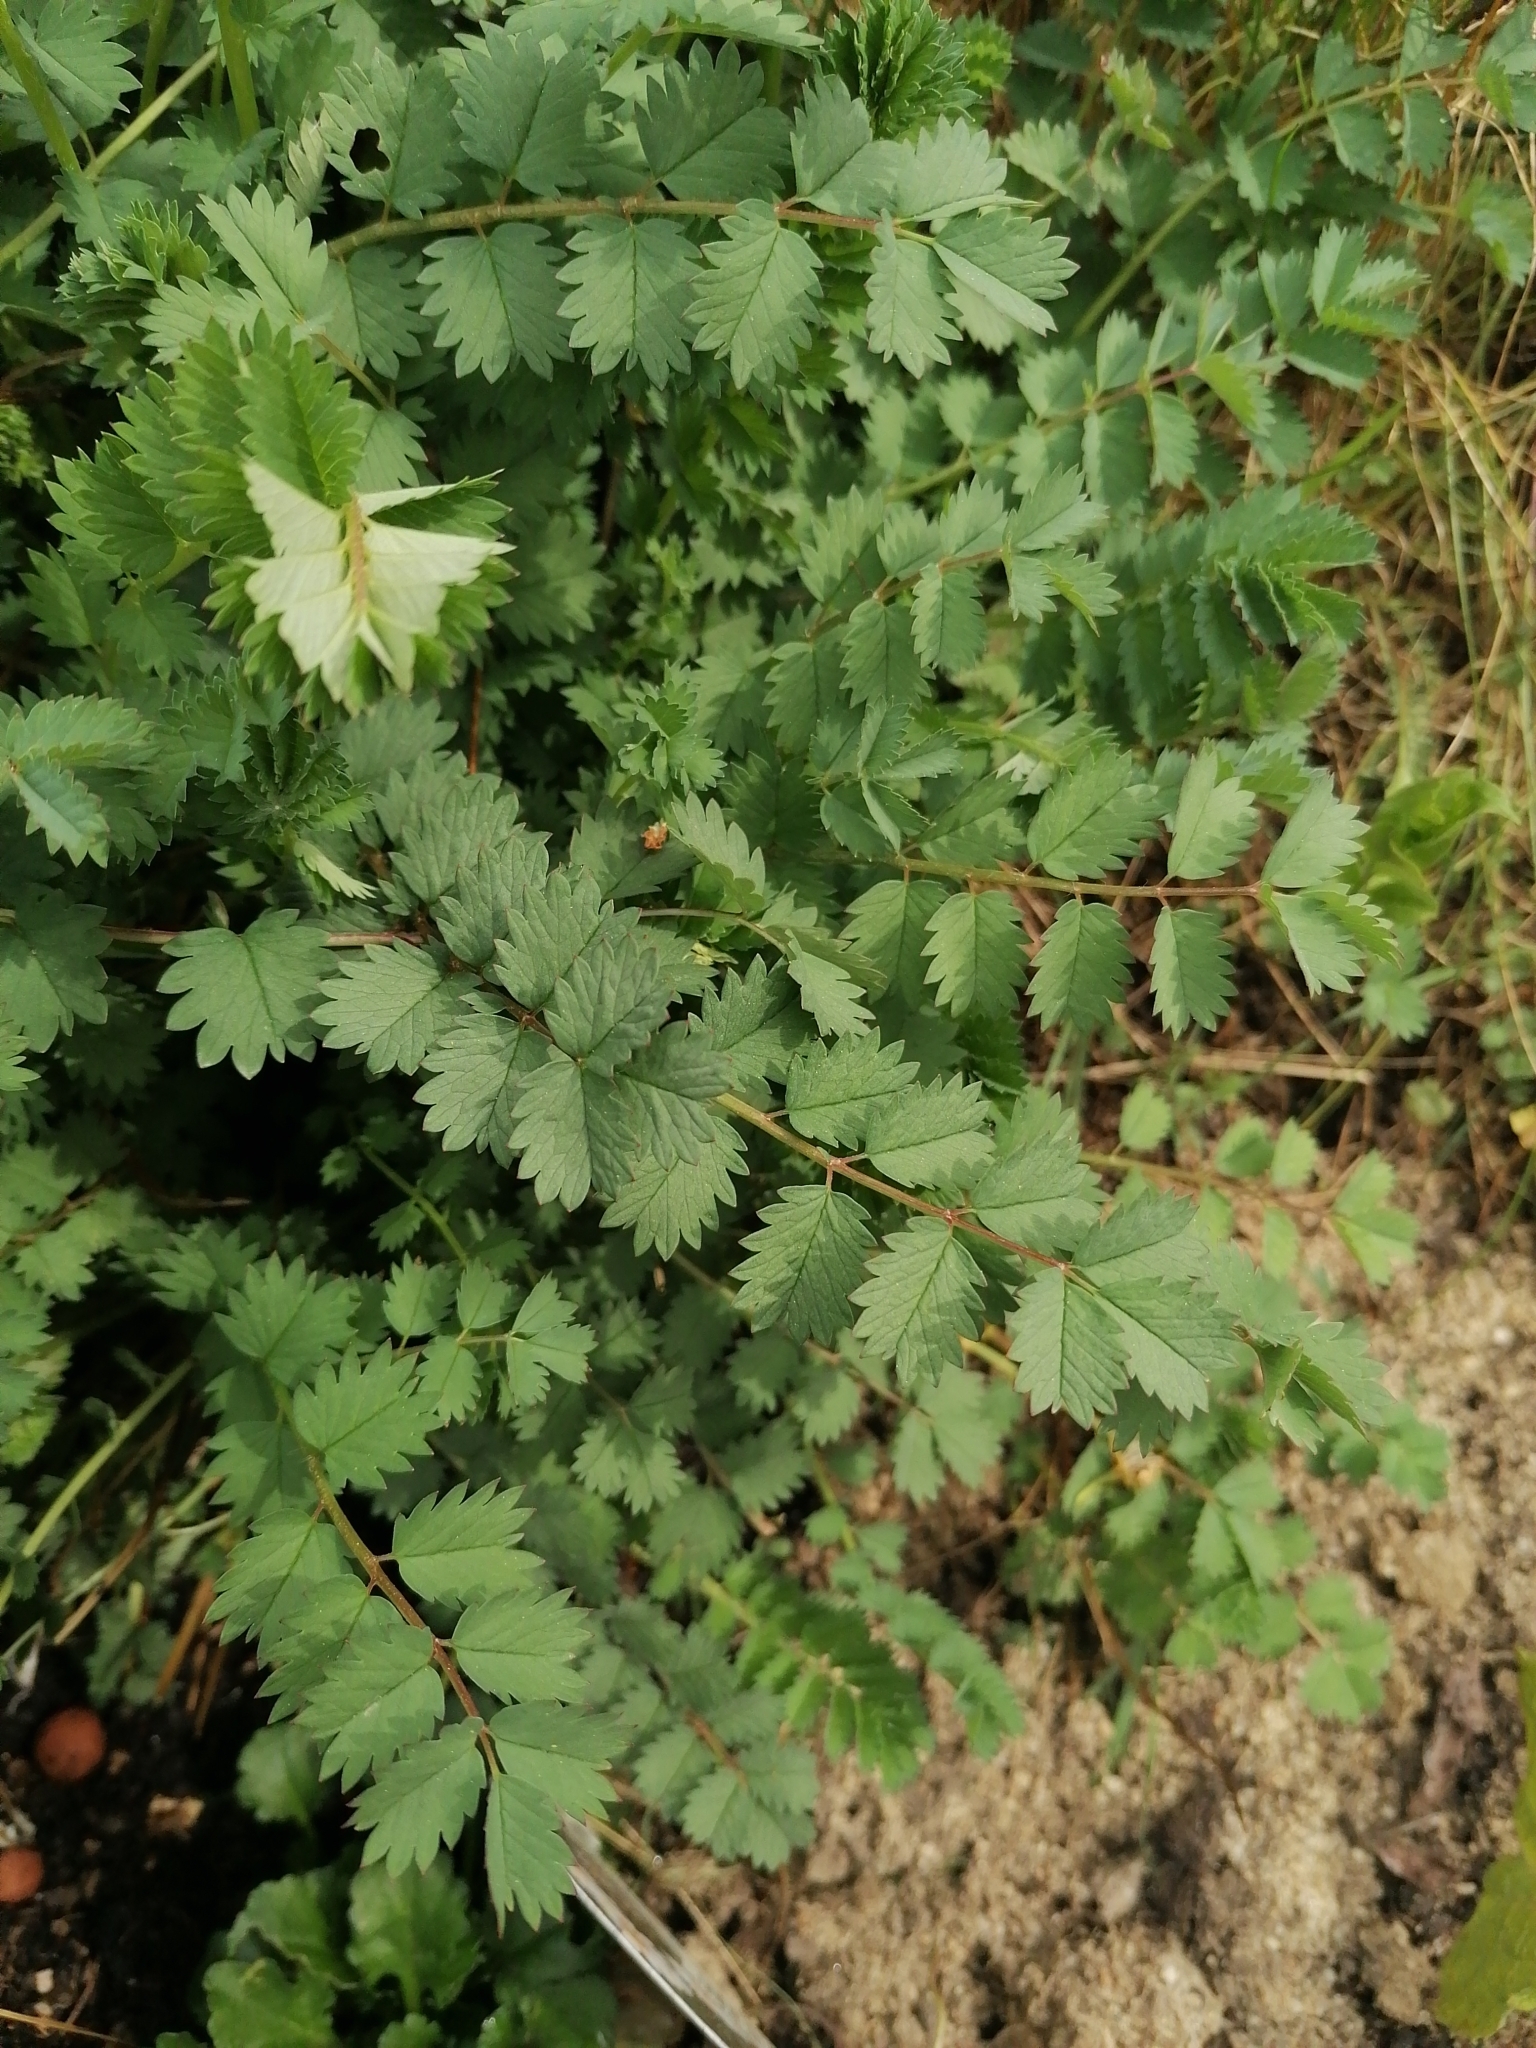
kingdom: Plantae
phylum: Tracheophyta
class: Magnoliopsida
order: Rosales
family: Rosaceae
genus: Poterium
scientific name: Poterium sanguisorba
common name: Salad burnet
